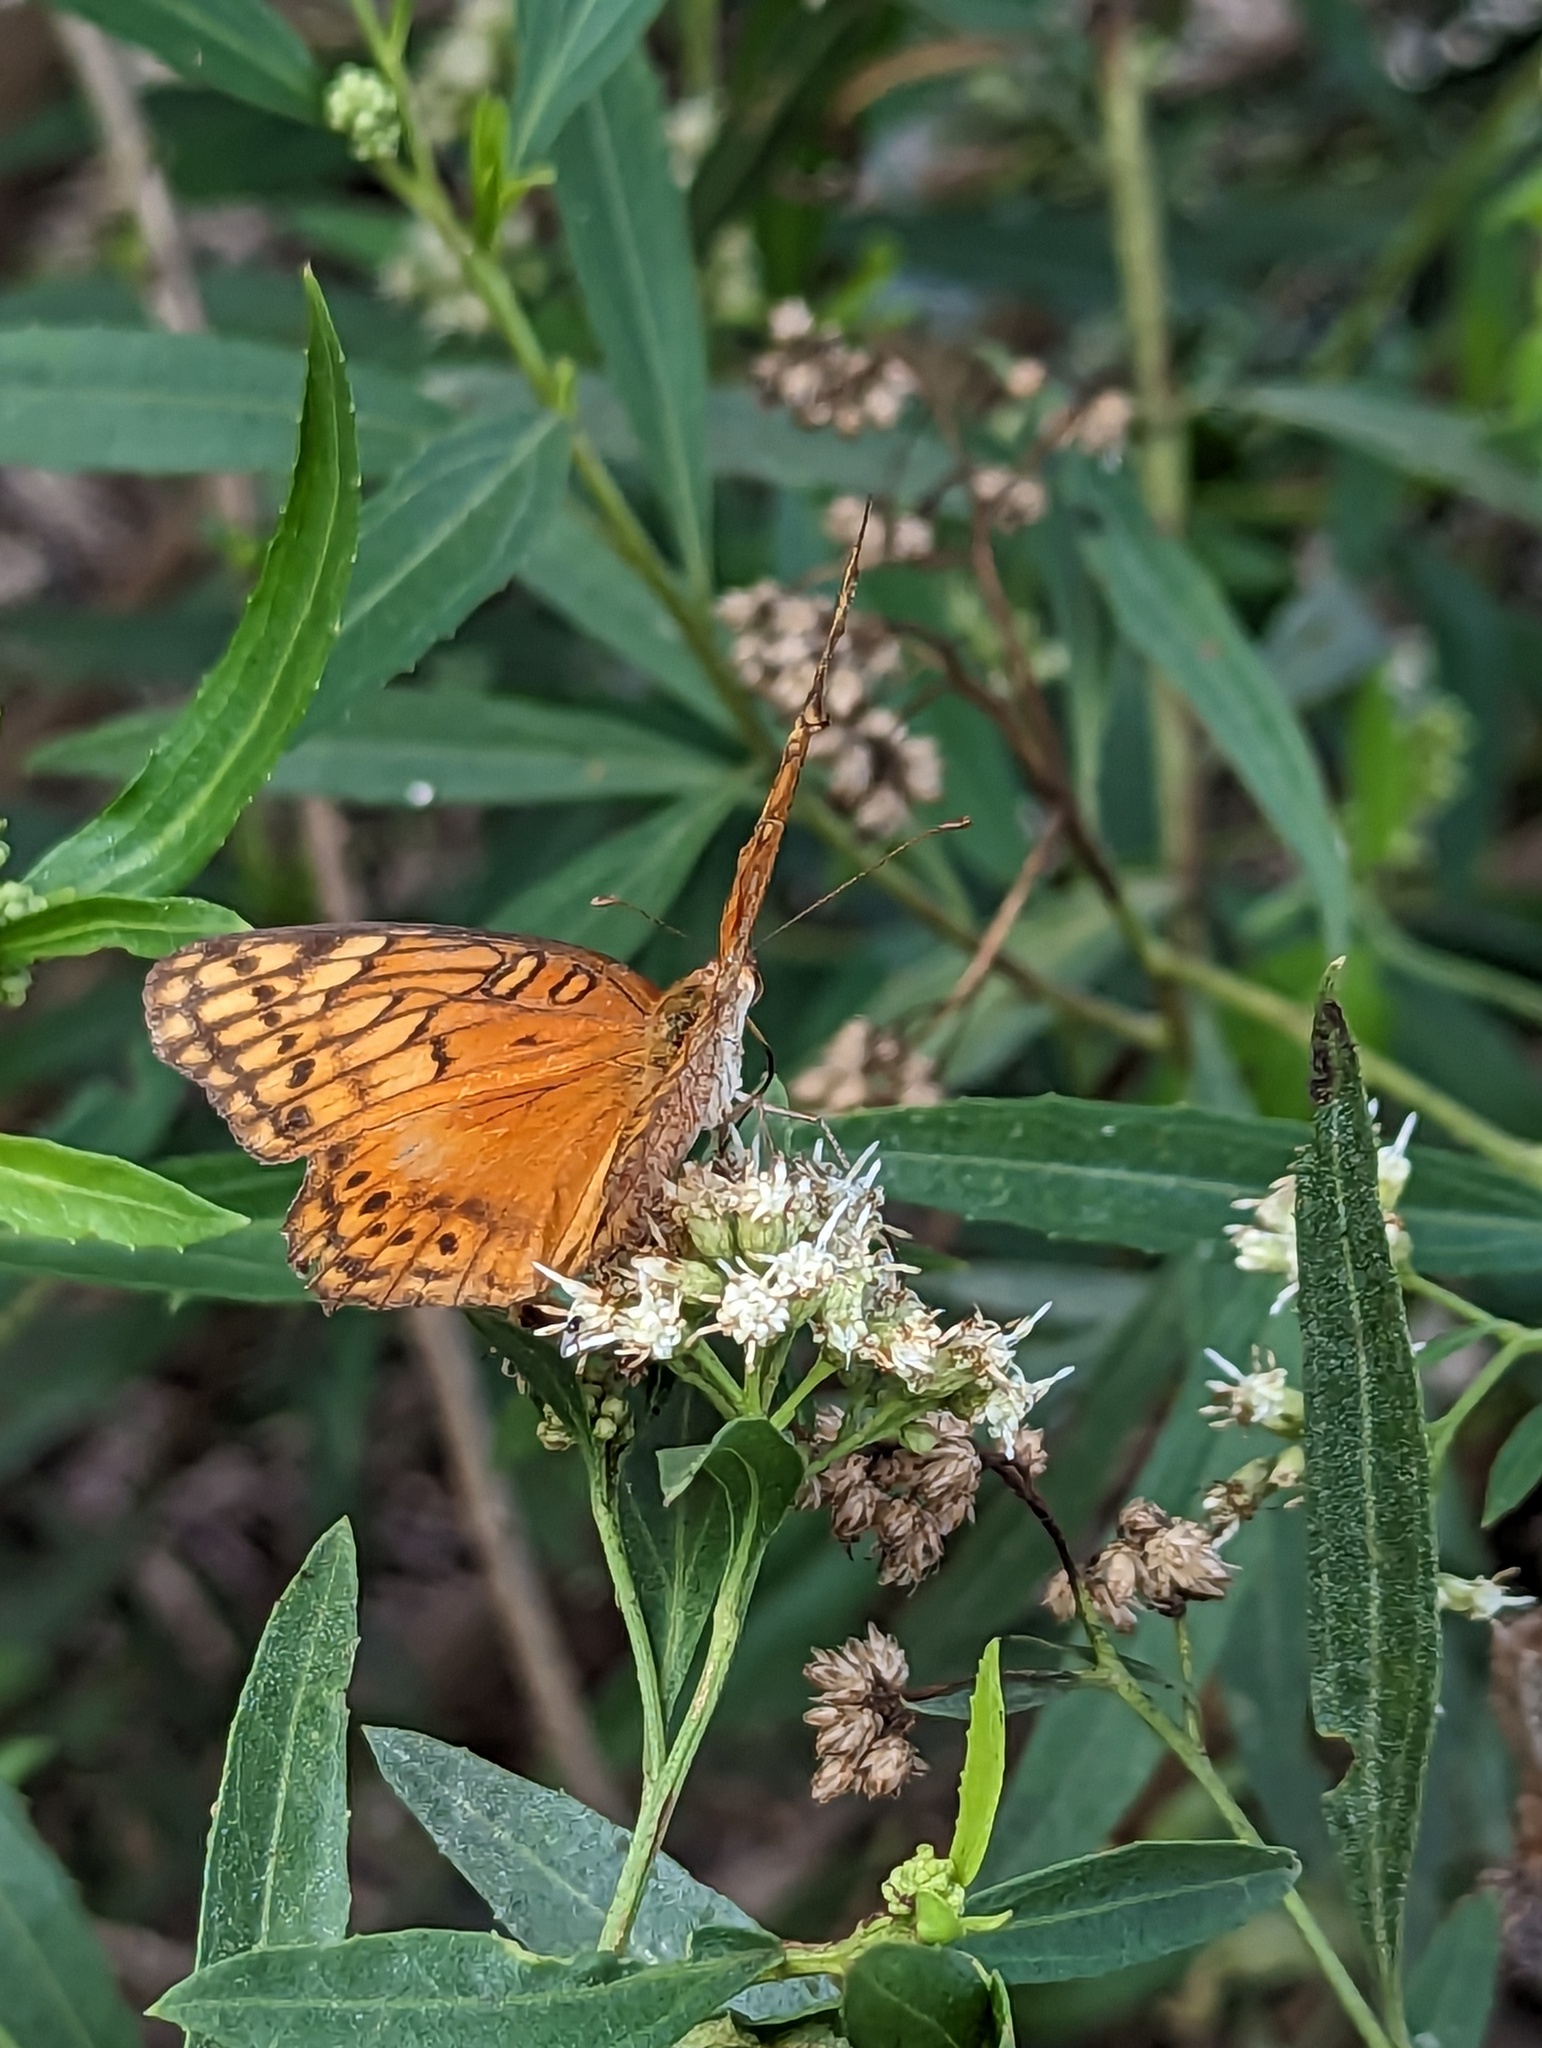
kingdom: Animalia
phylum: Arthropoda
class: Insecta
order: Lepidoptera
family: Nymphalidae
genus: Euptoieta
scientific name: Euptoieta hegesia
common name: Mexican fritillary
